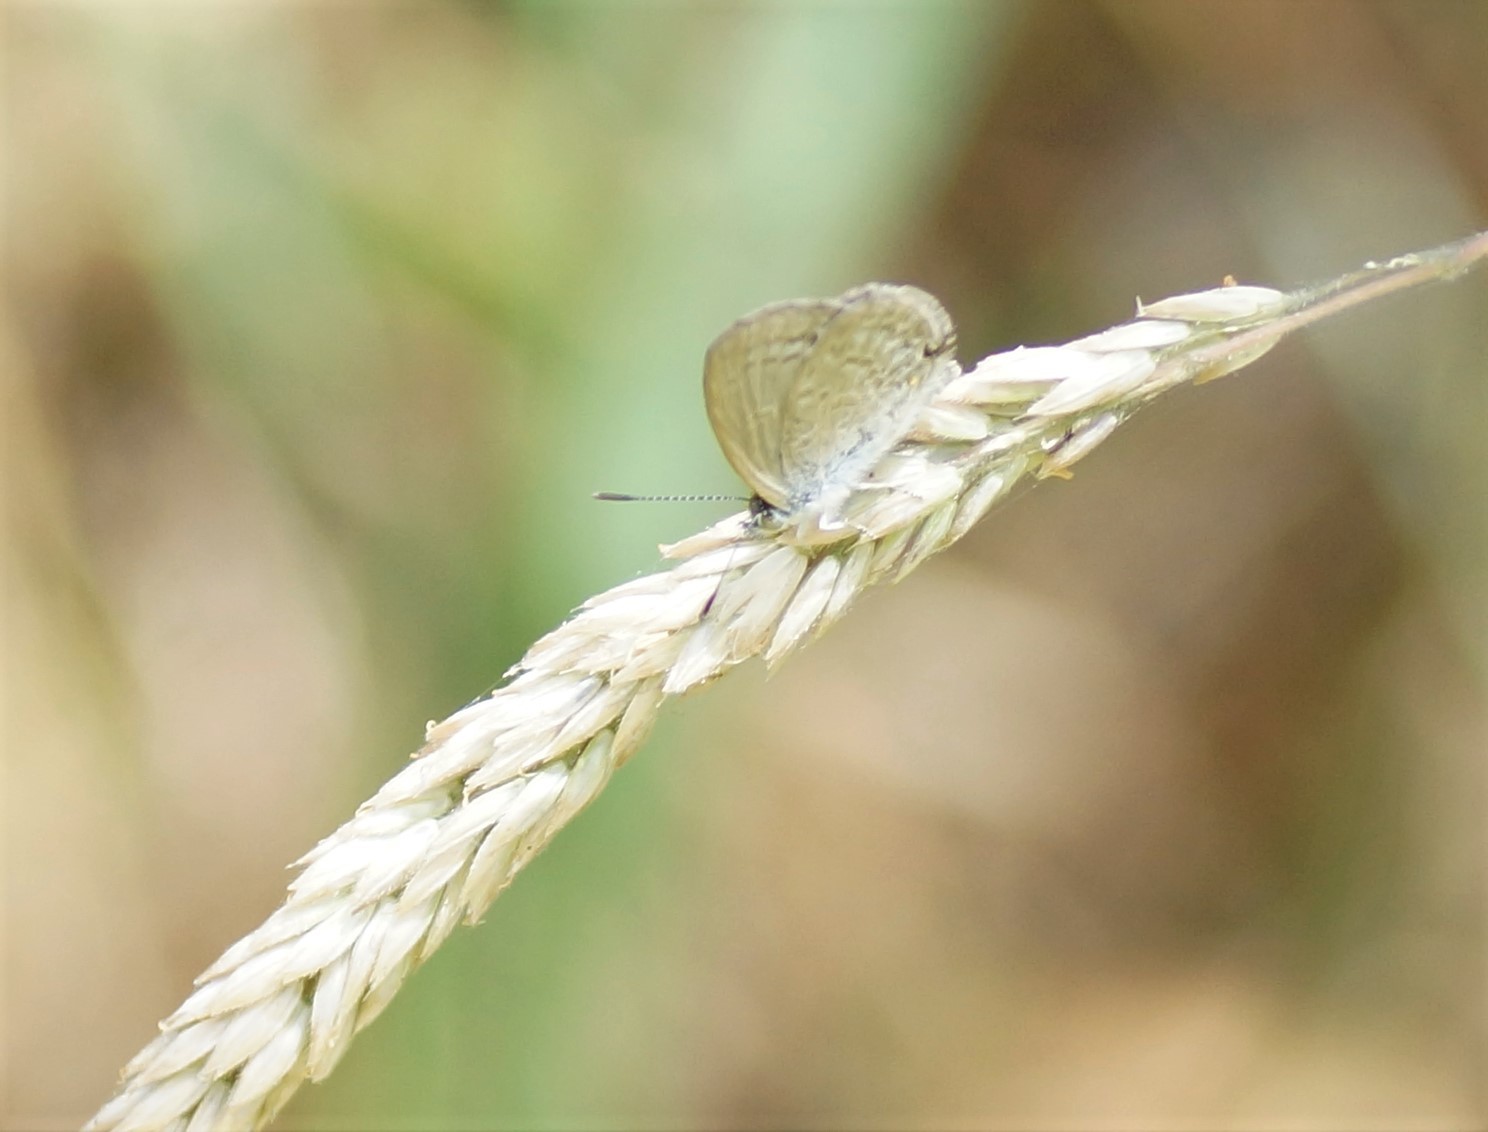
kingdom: Animalia
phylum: Arthropoda
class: Insecta
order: Lepidoptera
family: Lycaenidae
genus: Zizina
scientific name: Zizina labradus
